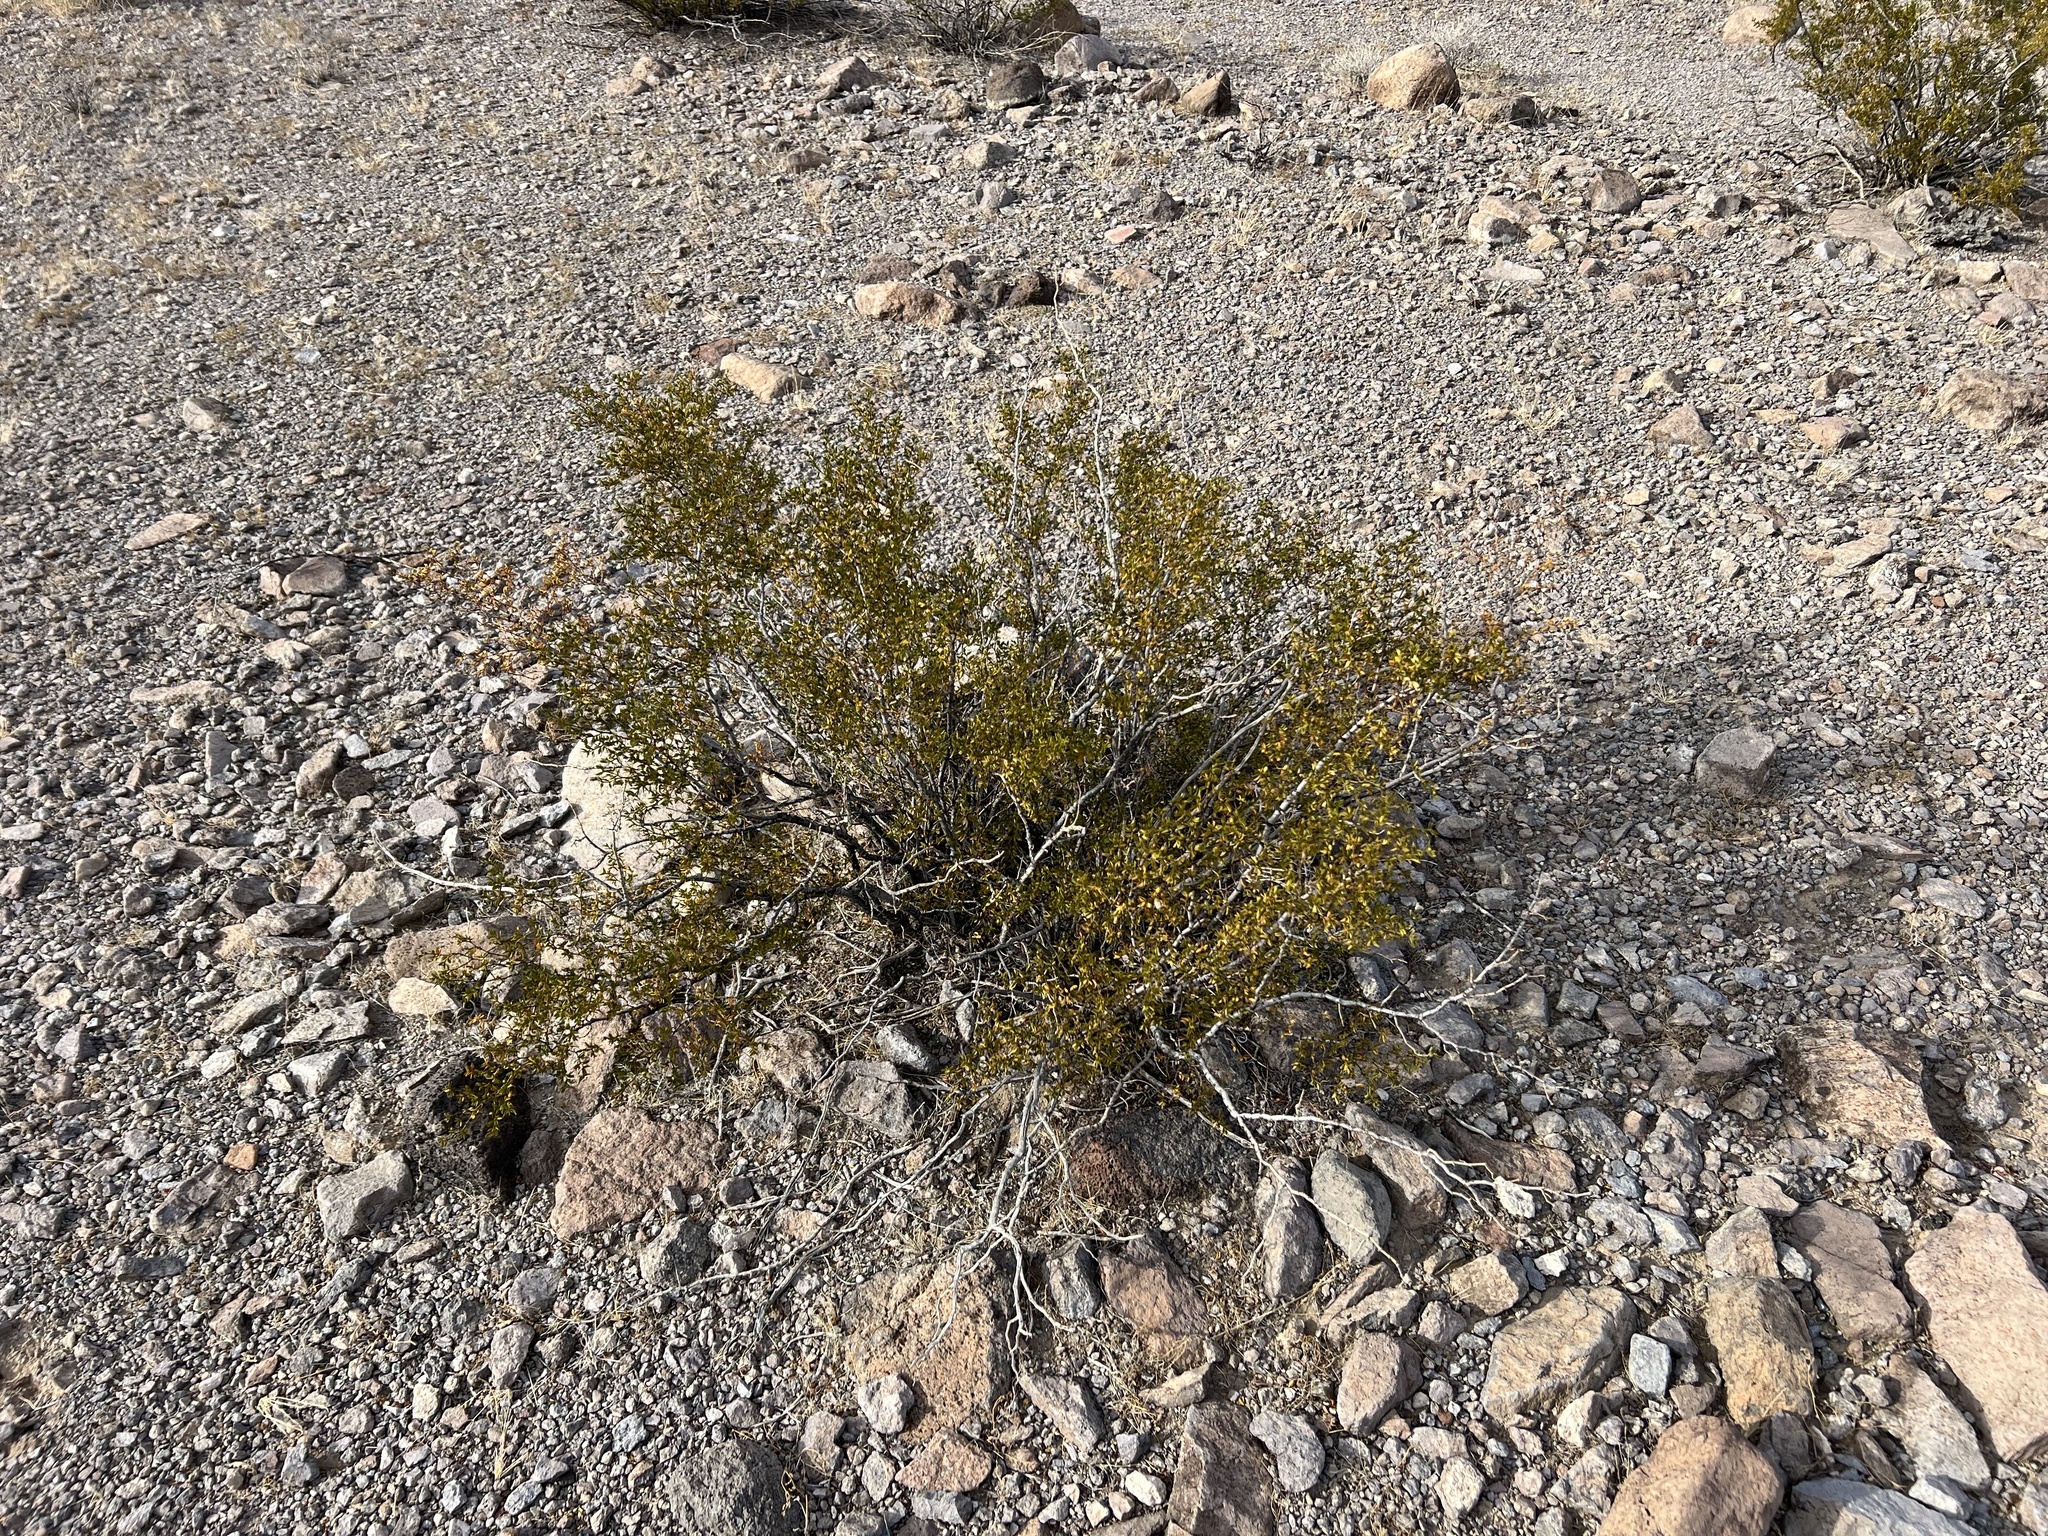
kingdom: Plantae
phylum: Tracheophyta
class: Magnoliopsida
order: Zygophyllales
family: Zygophyllaceae
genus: Larrea
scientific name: Larrea tridentata
